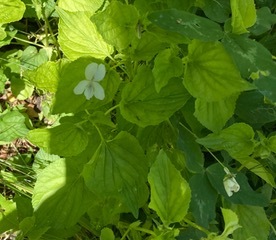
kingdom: Plantae
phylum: Tracheophyta
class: Magnoliopsida
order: Malpighiales
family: Violaceae
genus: Viola
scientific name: Viola striata
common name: Cream violet
